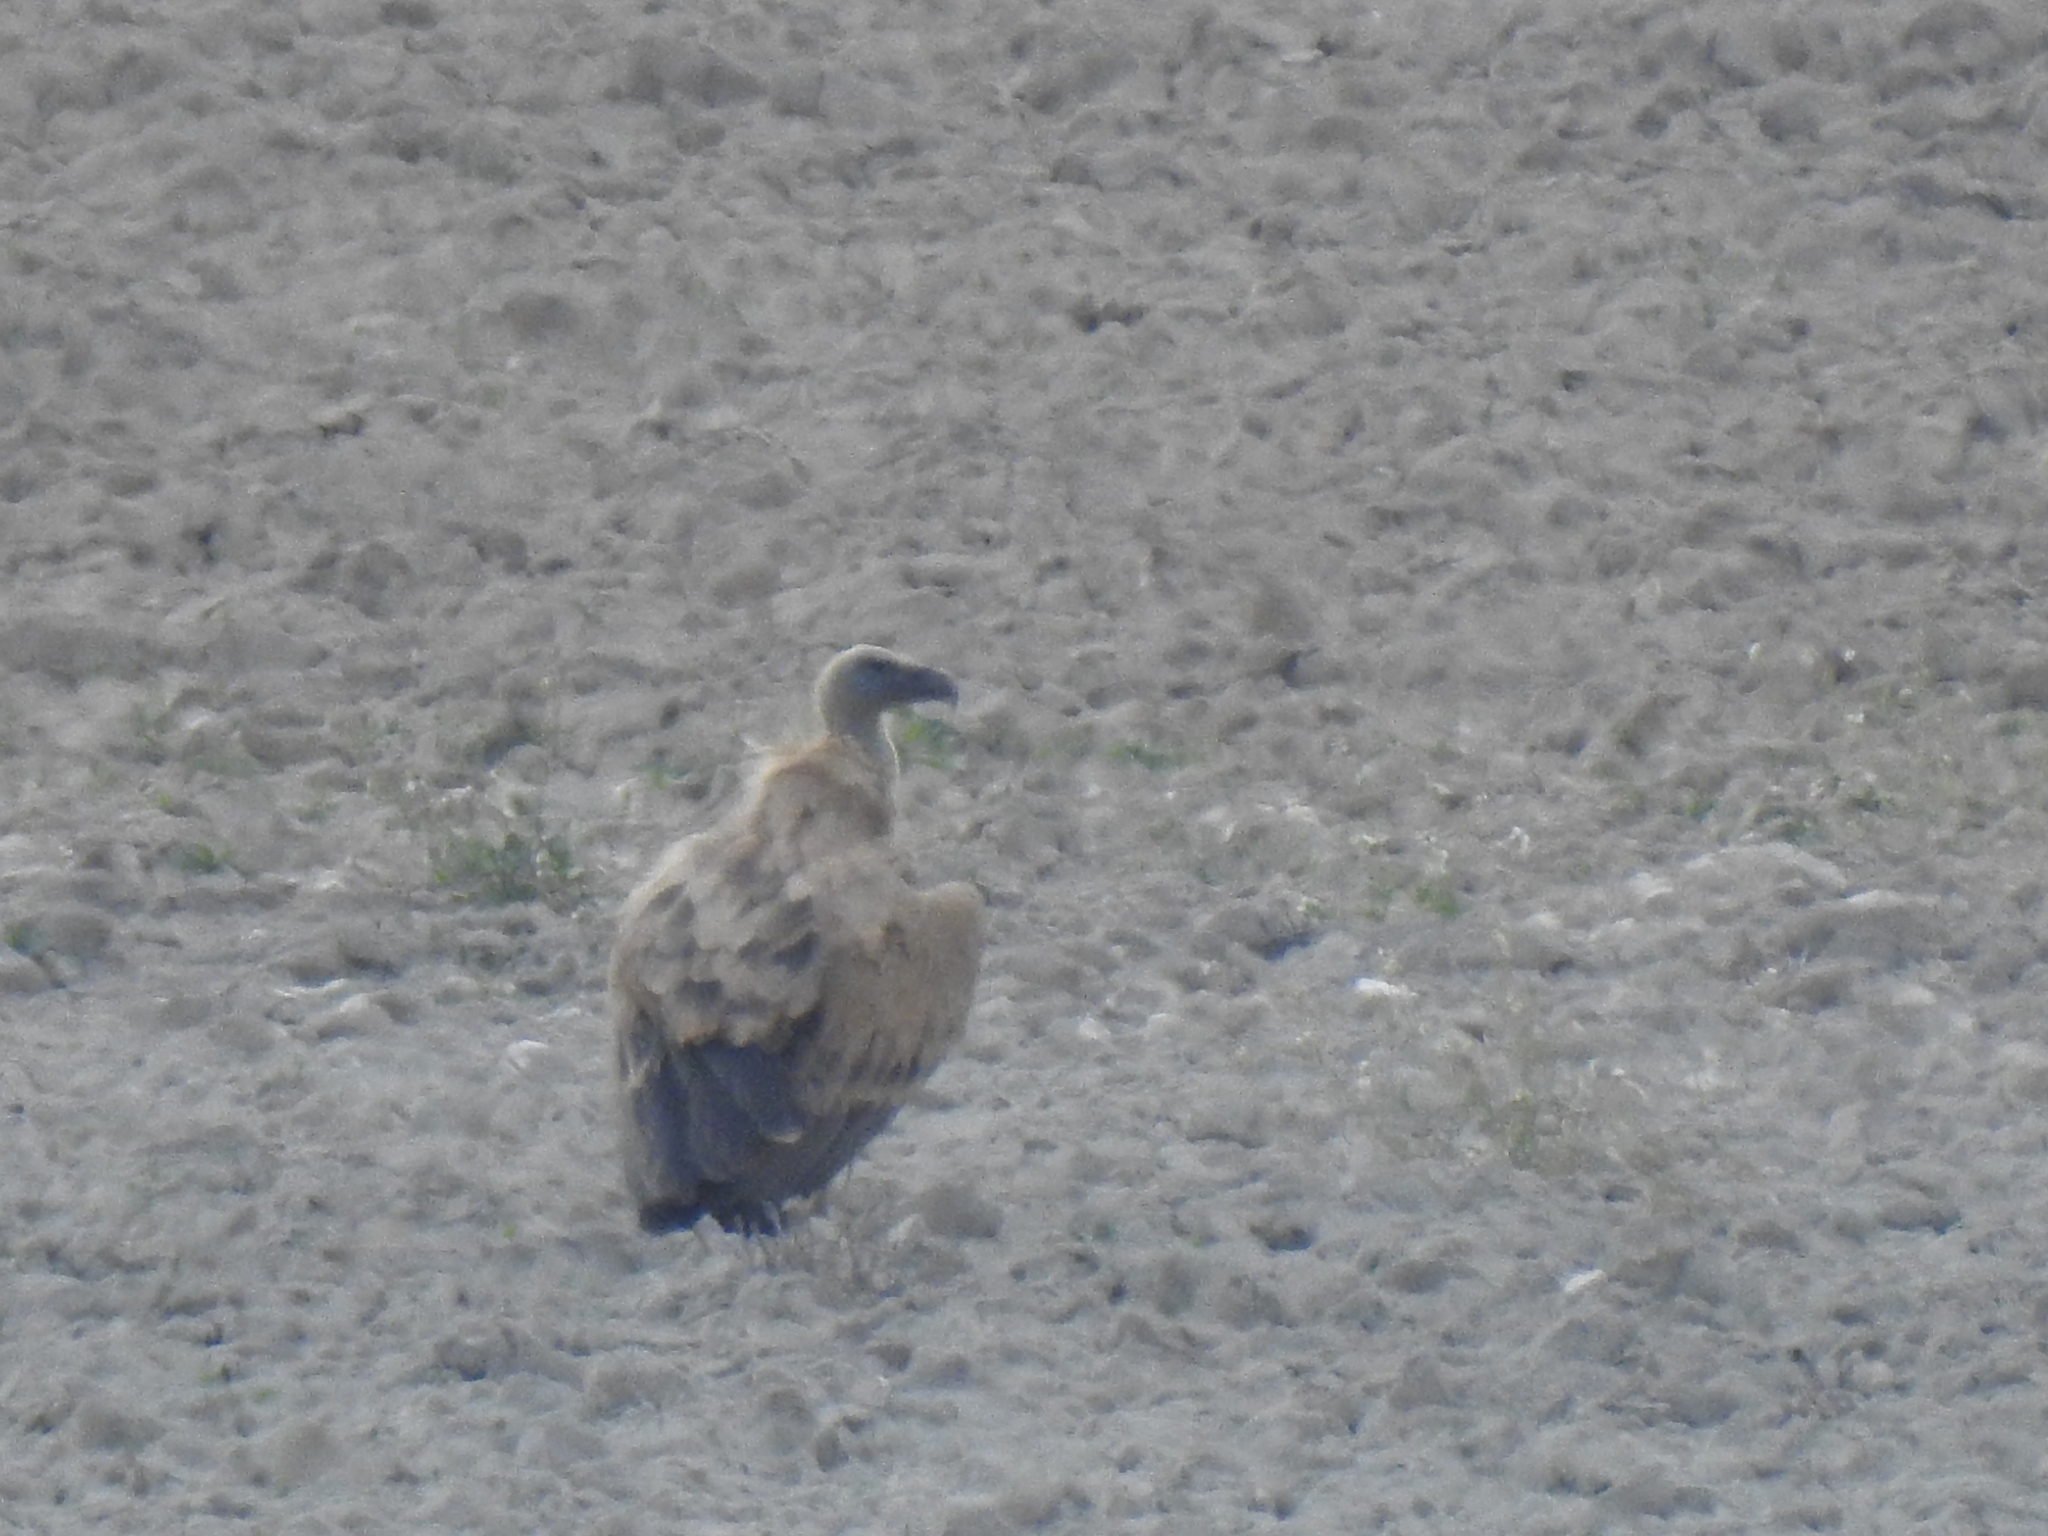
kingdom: Animalia
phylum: Chordata
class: Aves
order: Accipitriformes
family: Accipitridae
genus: Gyps
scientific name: Gyps fulvus
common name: Griffon vulture
